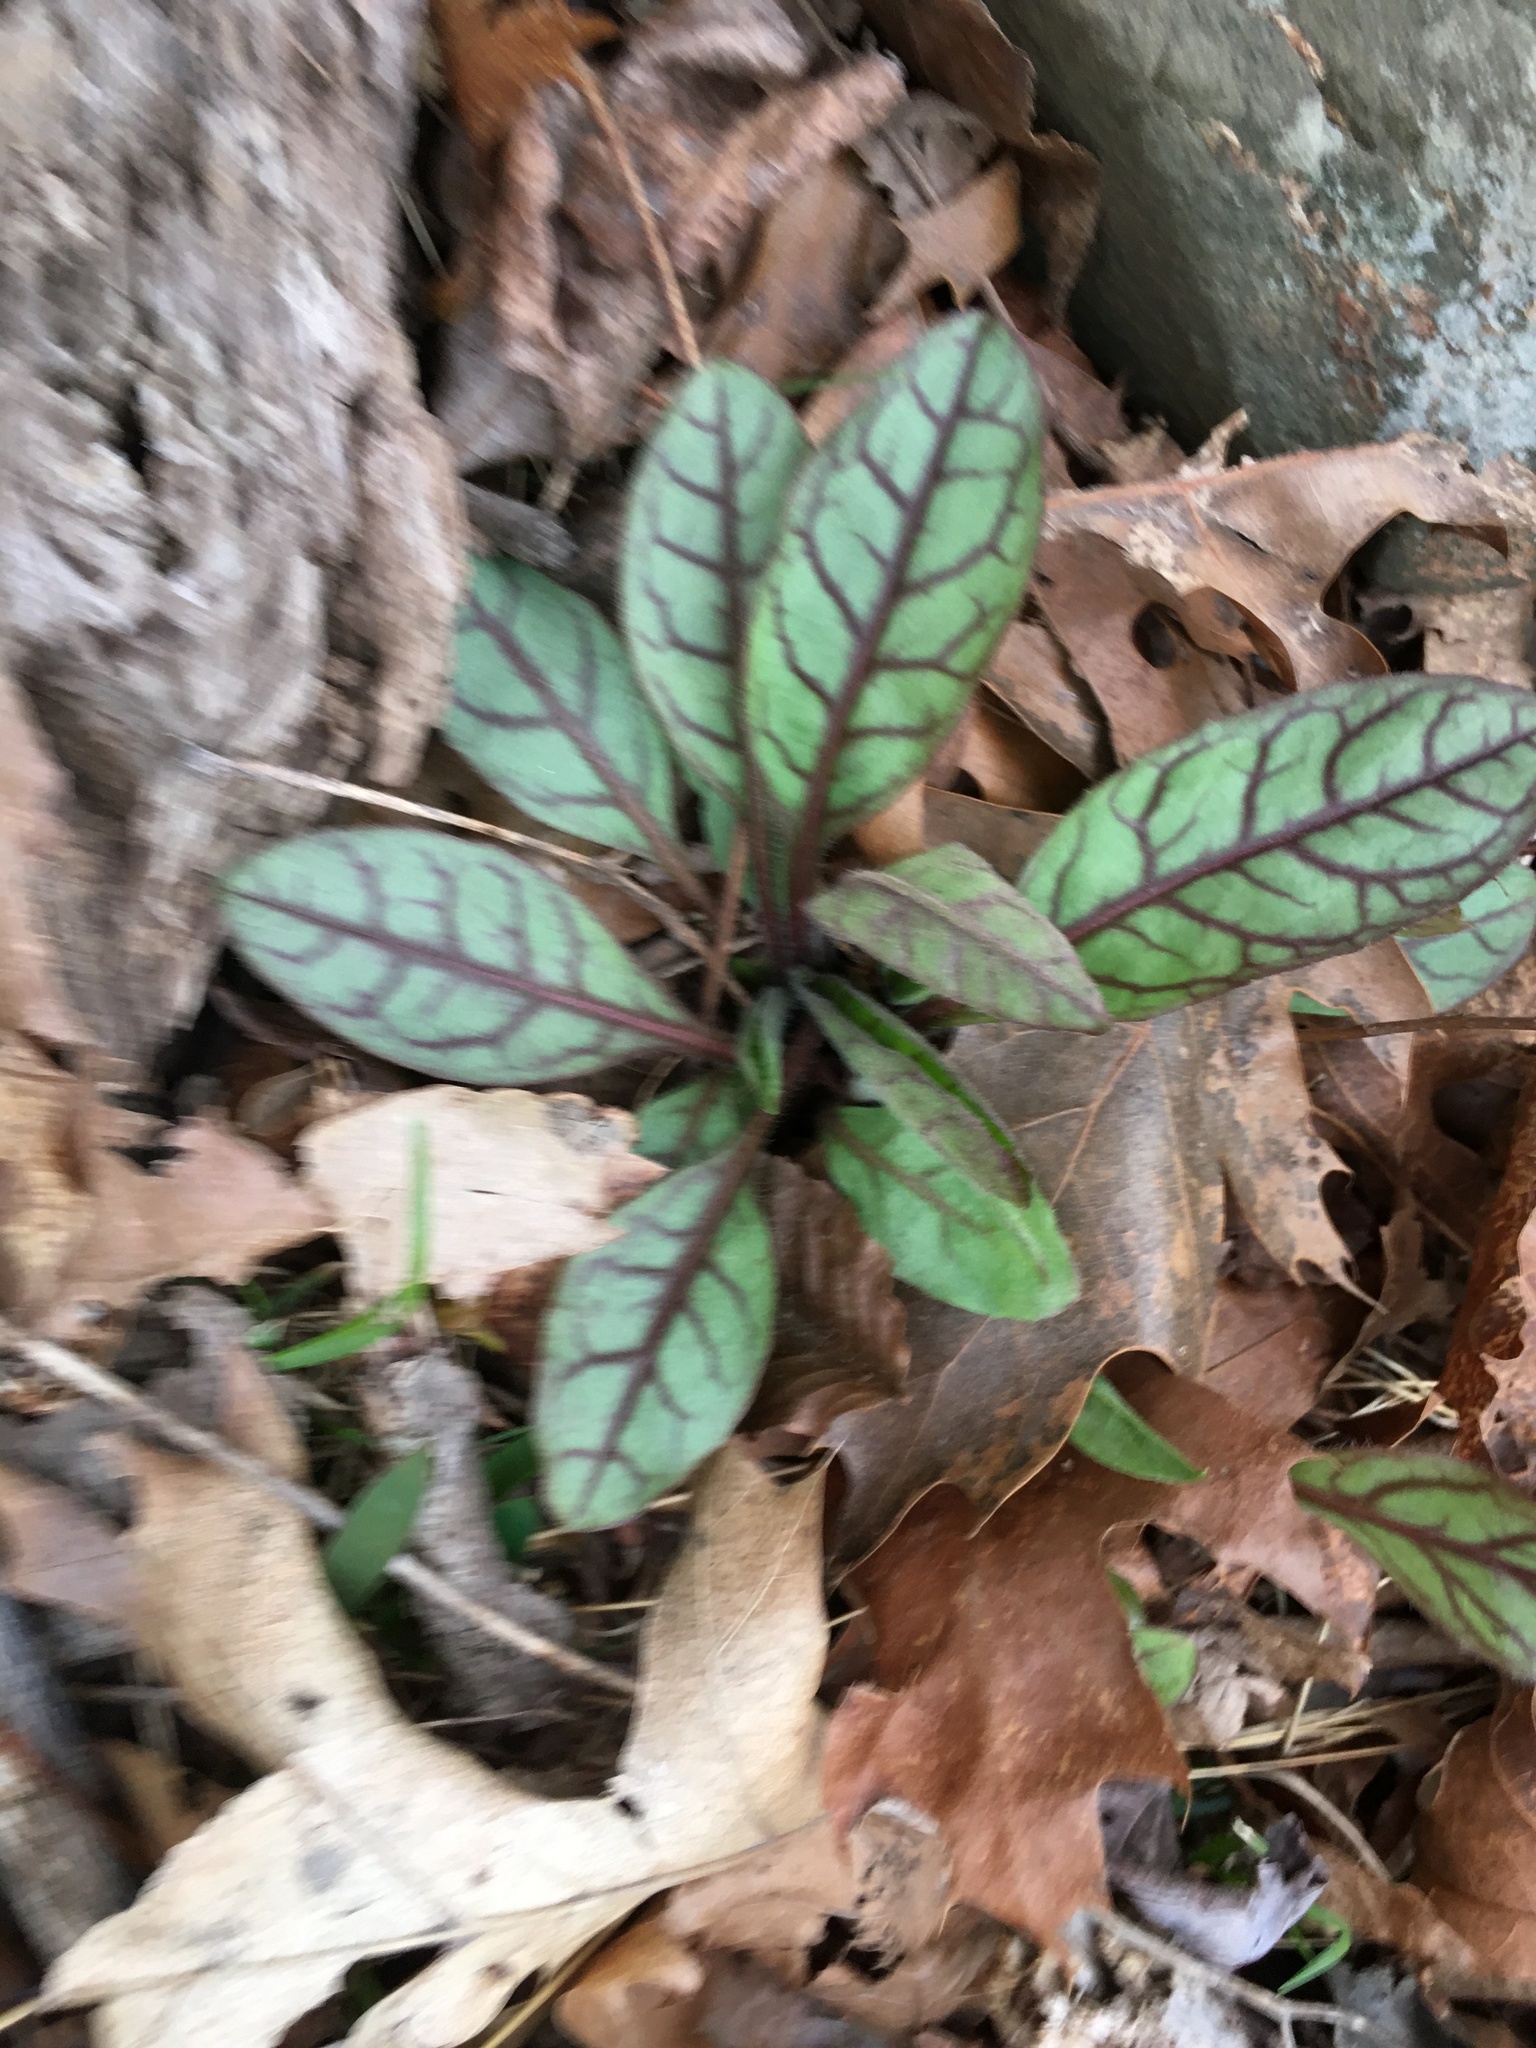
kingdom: Plantae
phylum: Tracheophyta
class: Magnoliopsida
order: Asterales
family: Asteraceae
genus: Hieracium
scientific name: Hieracium venosum
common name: Rattlesnake hawkweed
